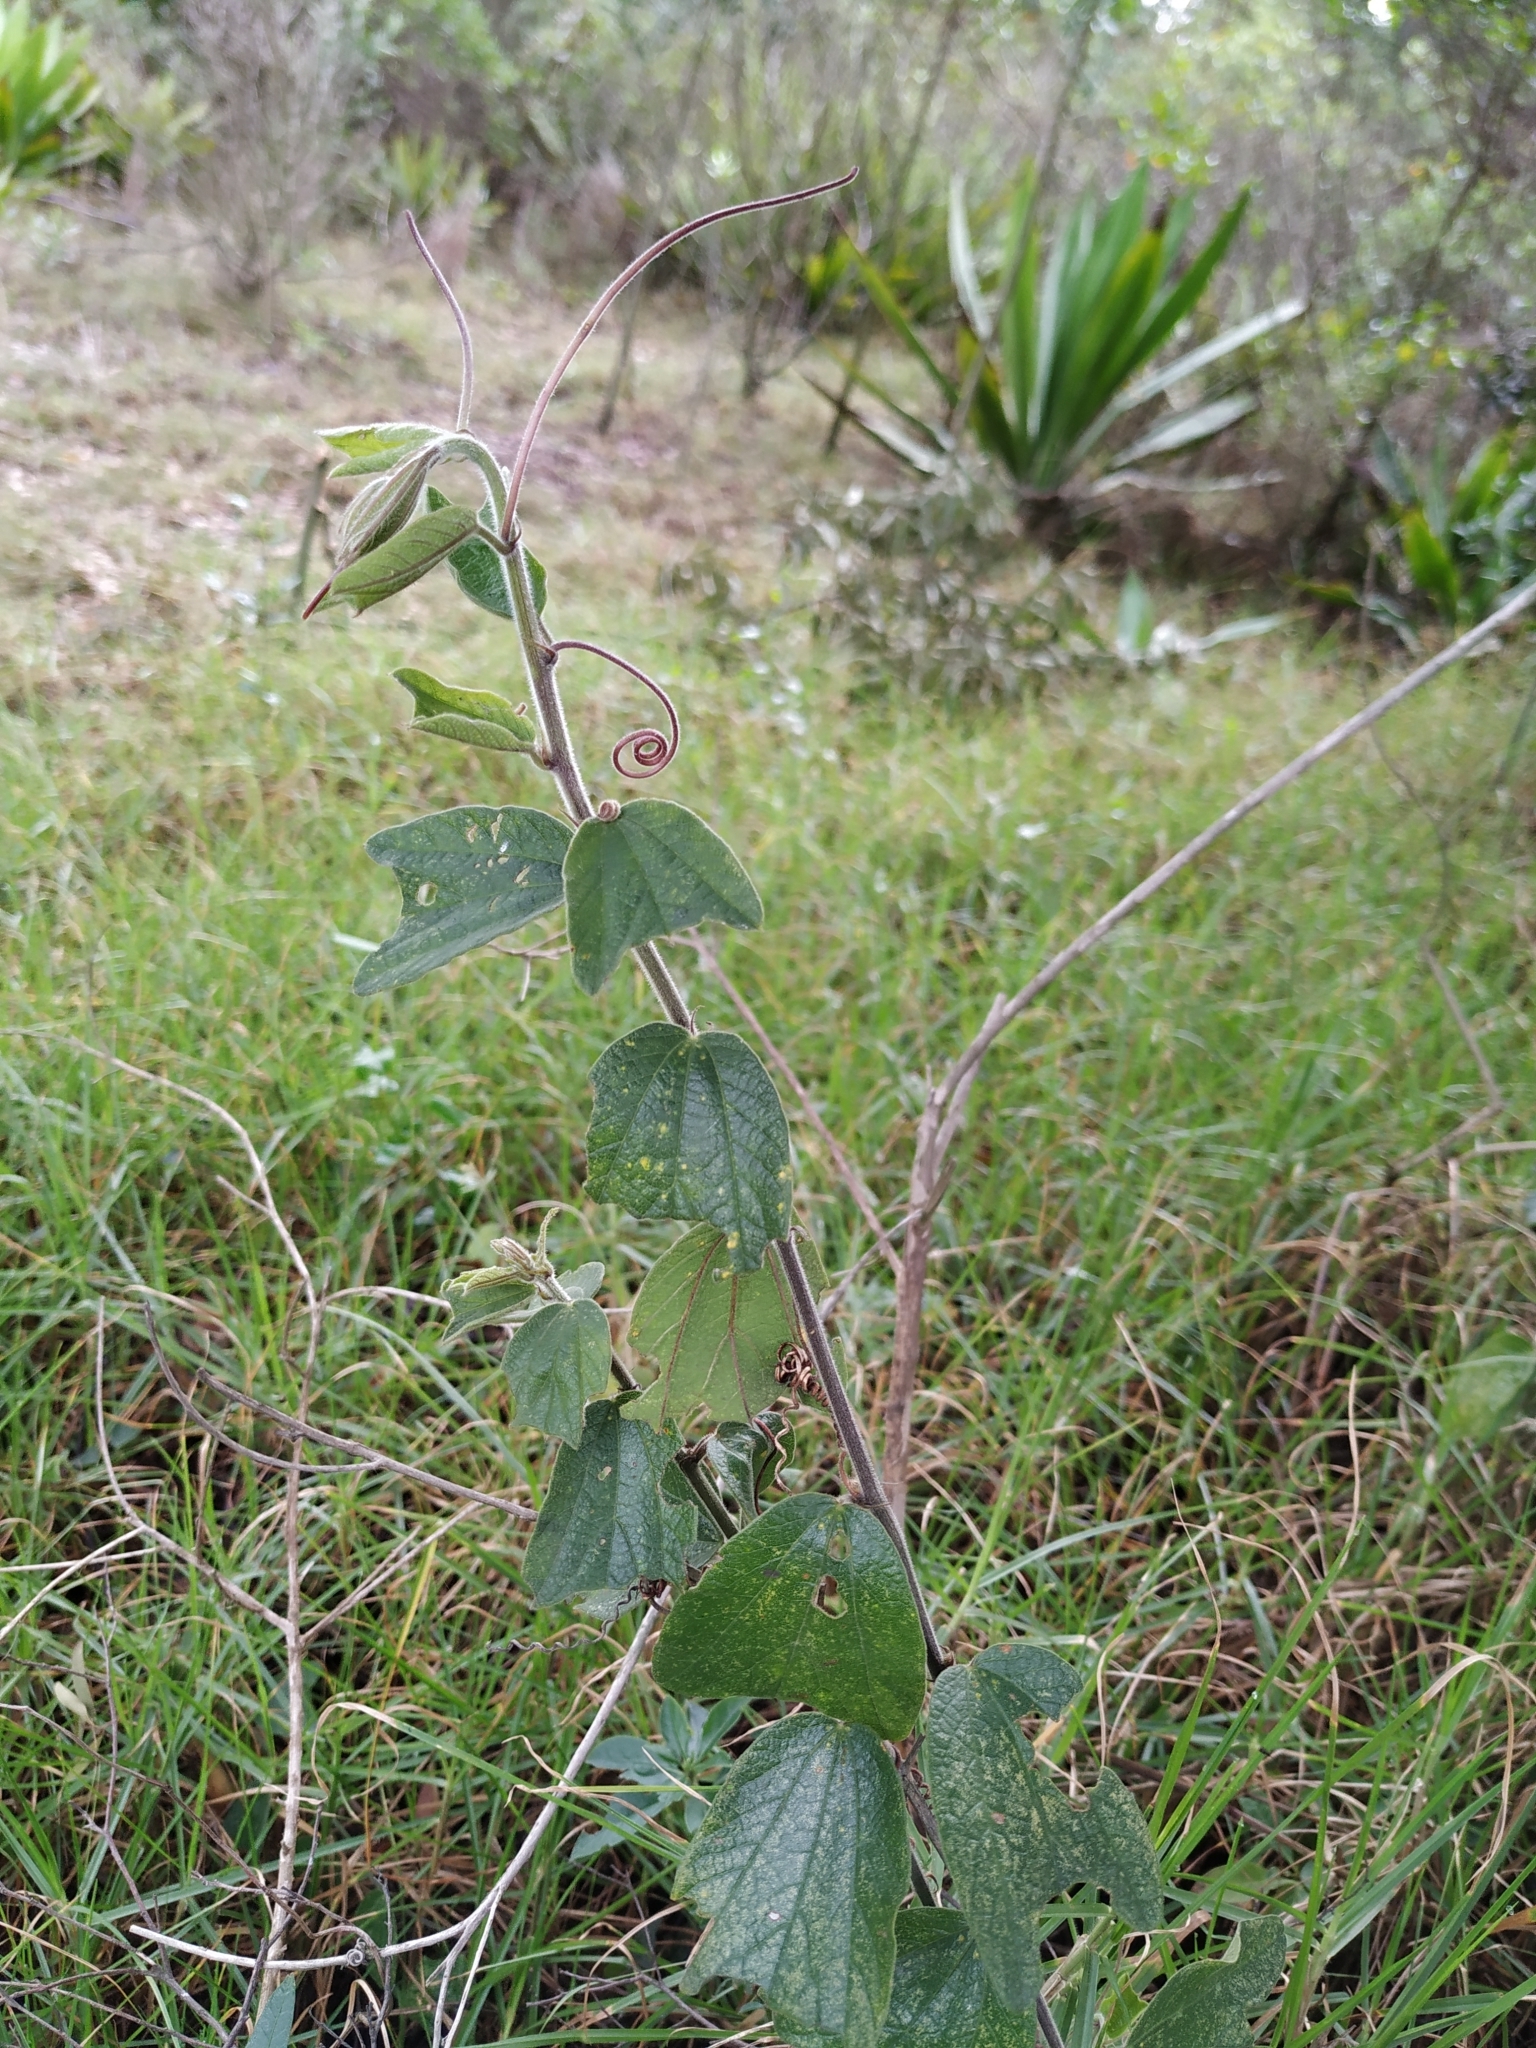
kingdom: Plantae
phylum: Tracheophyta
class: Magnoliopsida
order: Malpighiales
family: Passifloraceae
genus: Passiflora
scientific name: Passiflora bogotensis
